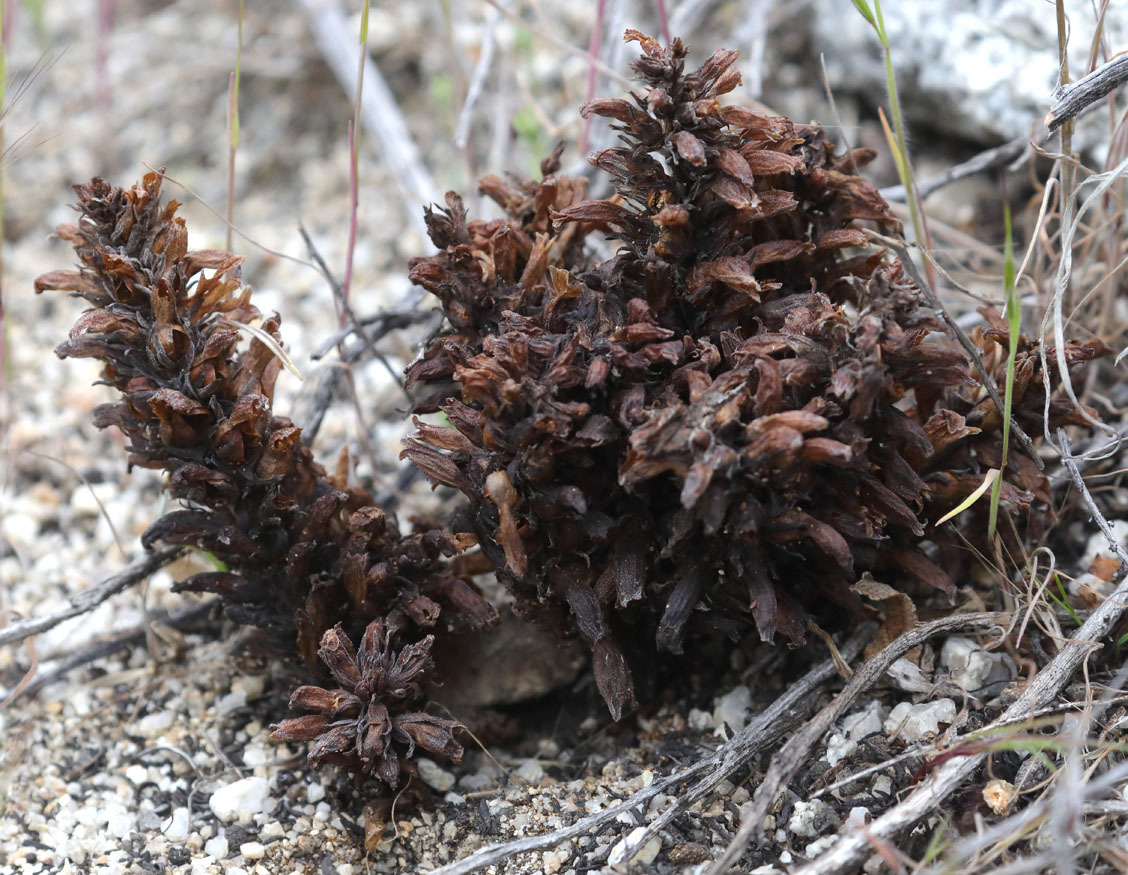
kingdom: Plantae
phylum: Tracheophyta
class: Magnoliopsida
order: Lamiales
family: Orobanchaceae
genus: Aphyllon
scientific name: Aphyllon tuberosum
